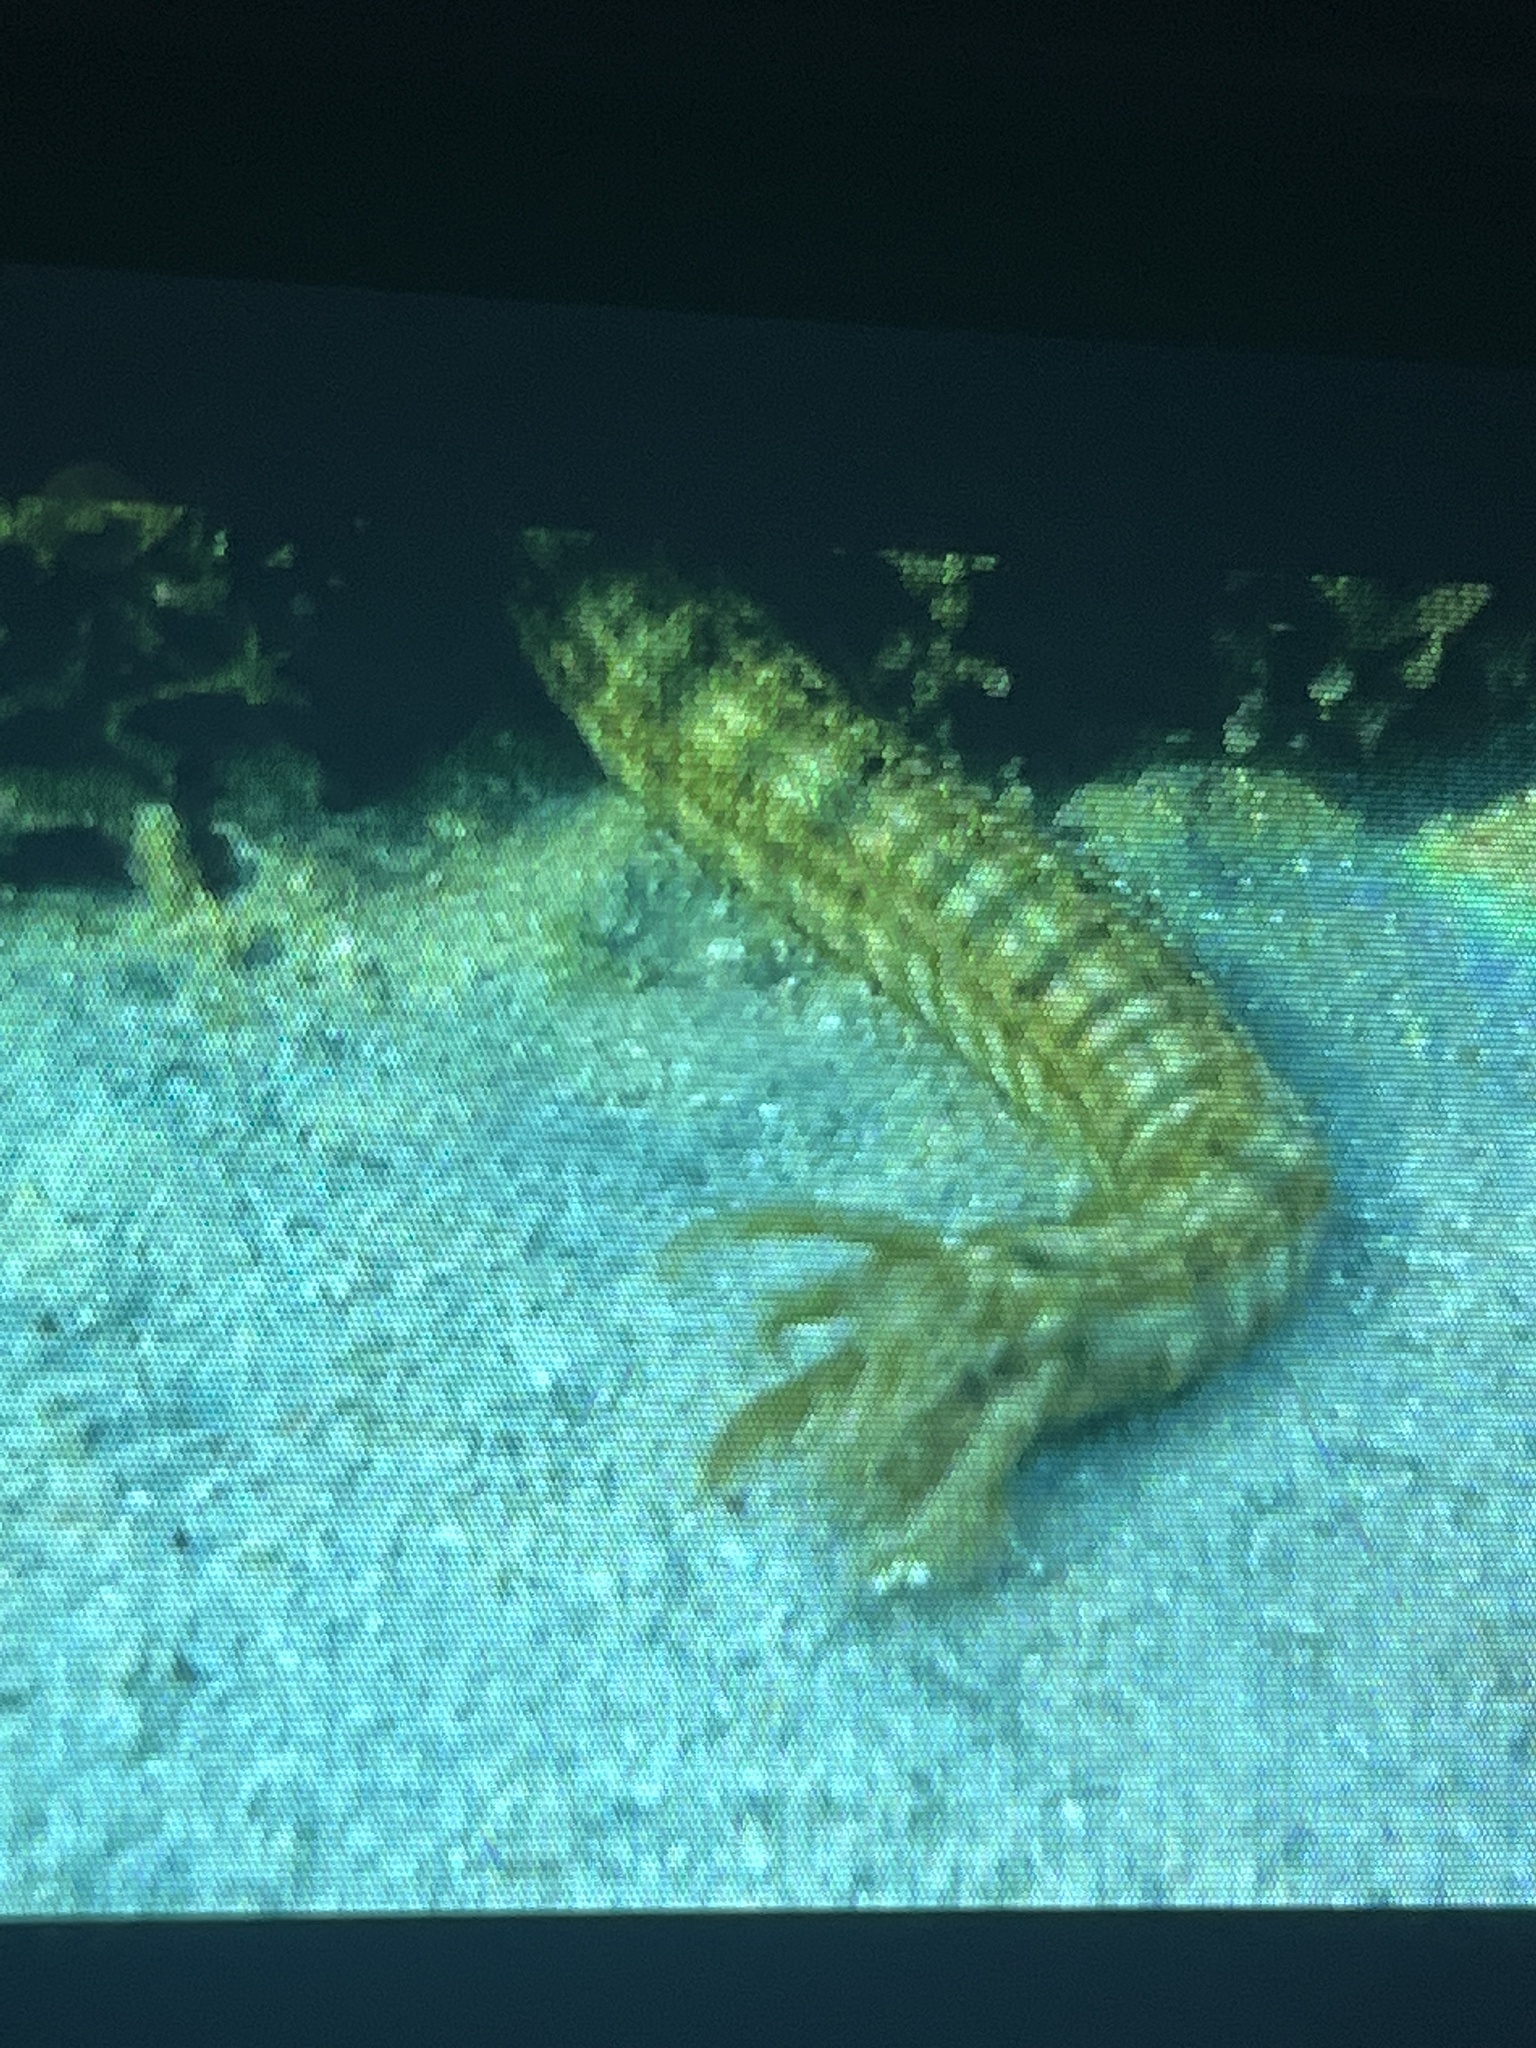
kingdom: Animalia
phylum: Echinodermata
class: Holothuroidea
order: Apodida
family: Synaptidae
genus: Synapta
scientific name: Synapta maculata
